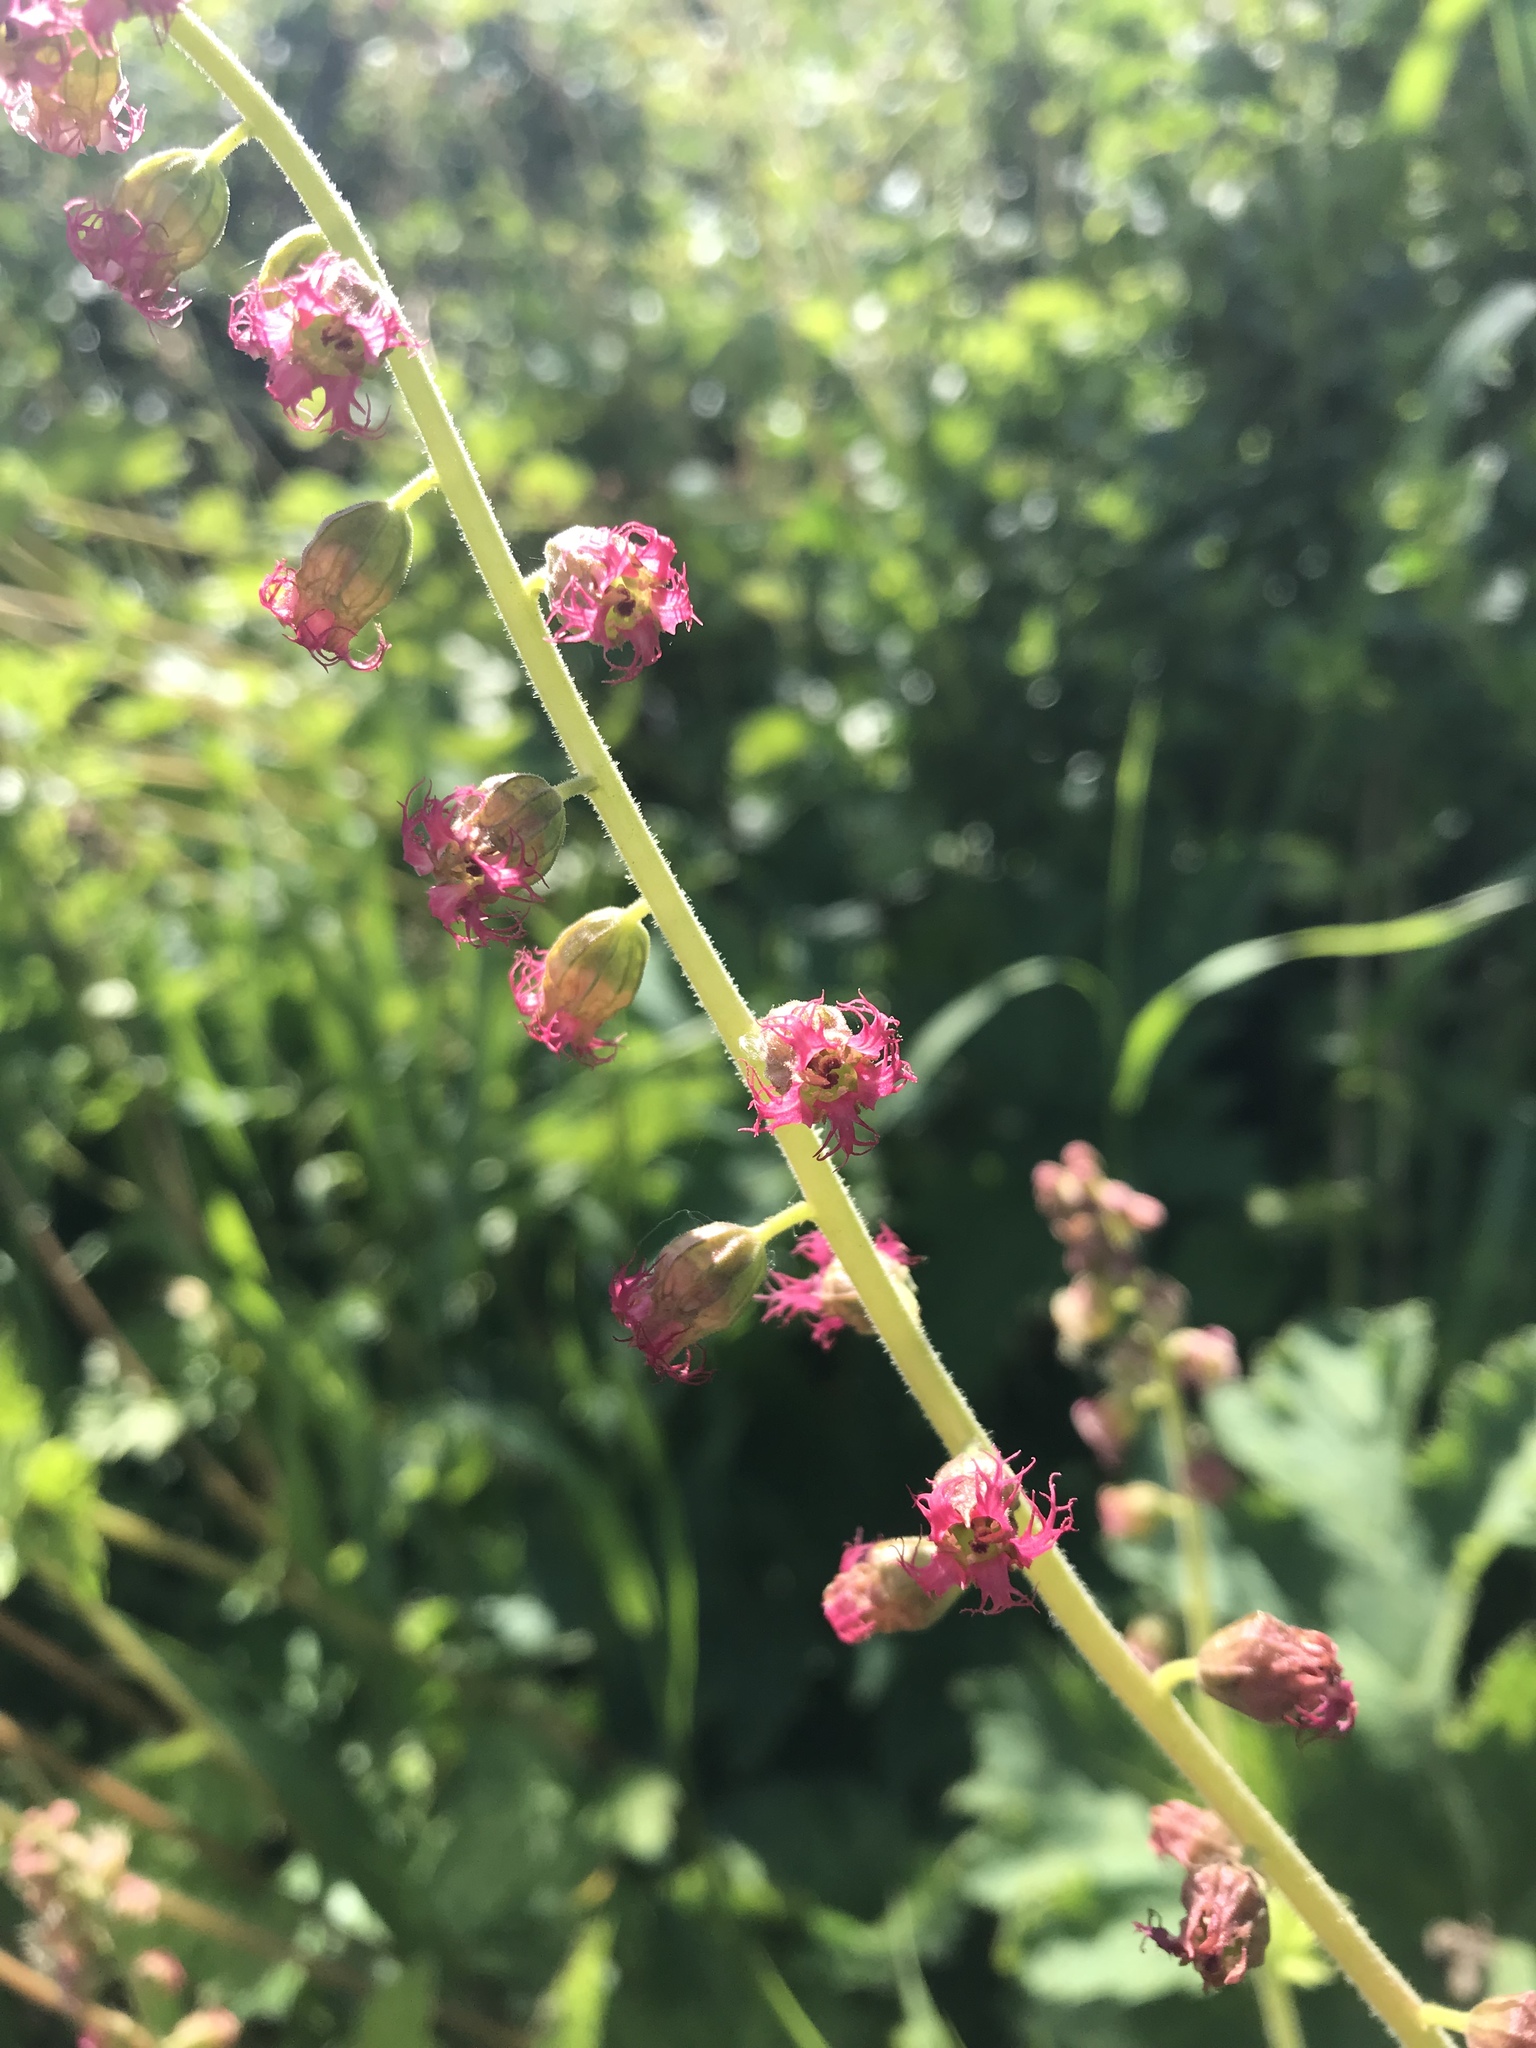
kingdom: Plantae
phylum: Tracheophyta
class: Magnoliopsida
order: Saxifragales
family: Saxifragaceae
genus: Tellima
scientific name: Tellima grandiflora
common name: Fringecups
